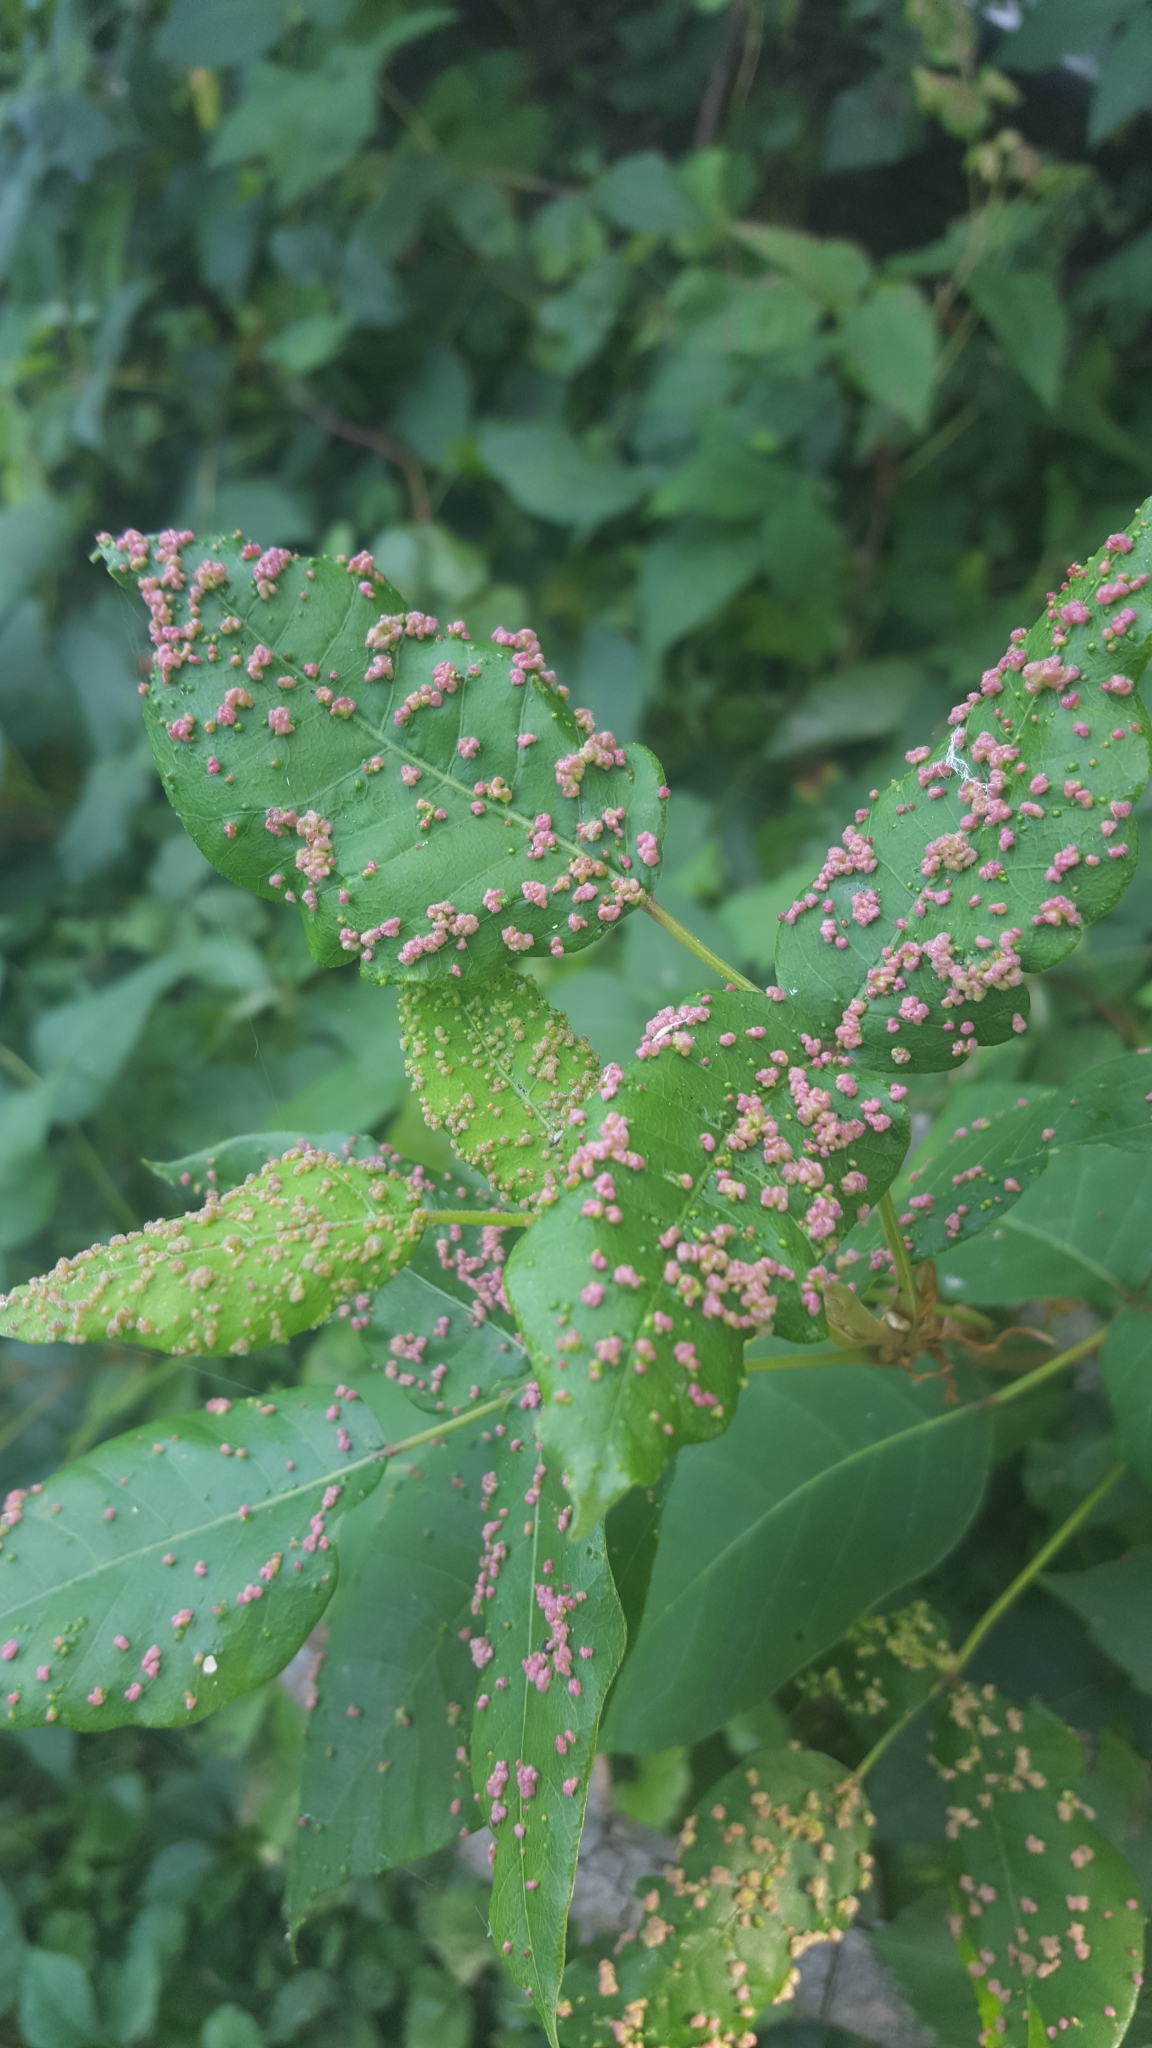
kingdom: Animalia
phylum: Arthropoda
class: Arachnida
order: Trombidiformes
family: Eriophyidae
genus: Aculops
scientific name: Aculops
